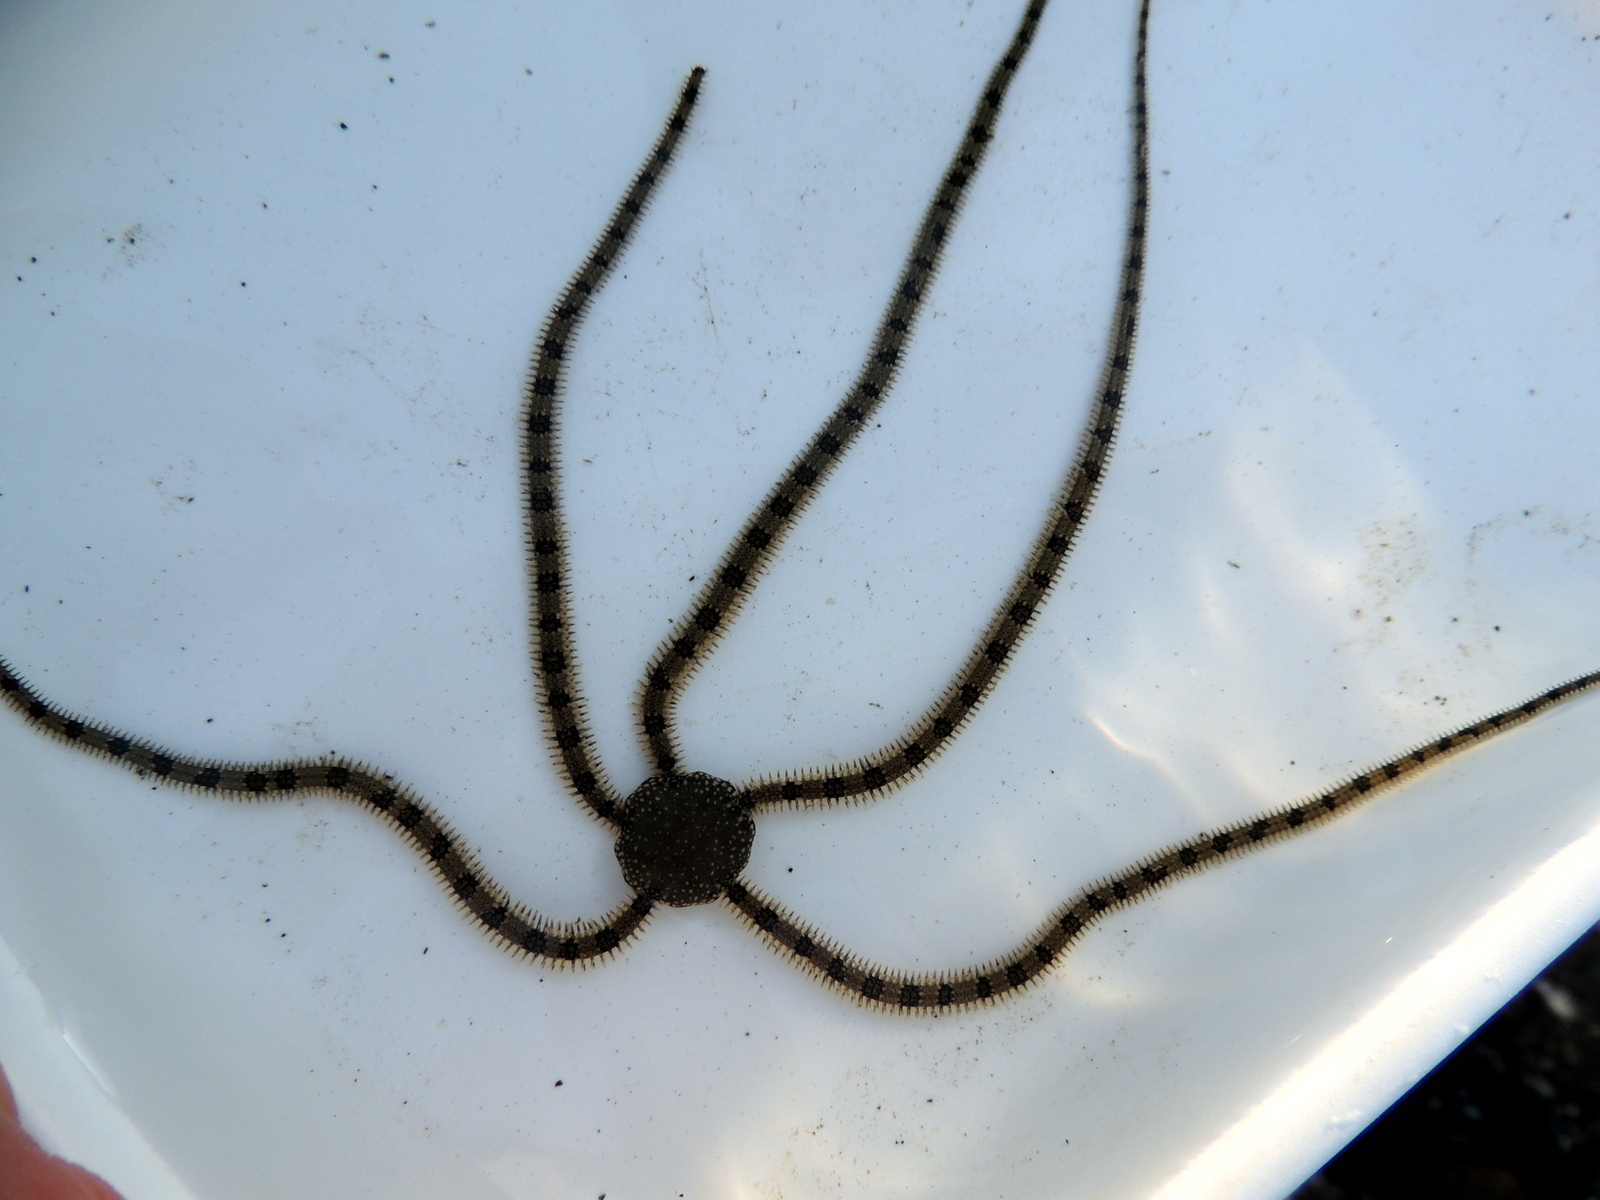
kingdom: Animalia
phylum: Echinodermata
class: Ophiuroidea
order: Amphilepidida
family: Ophionereididae
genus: Ophionereis
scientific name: Ophionereis annulata
